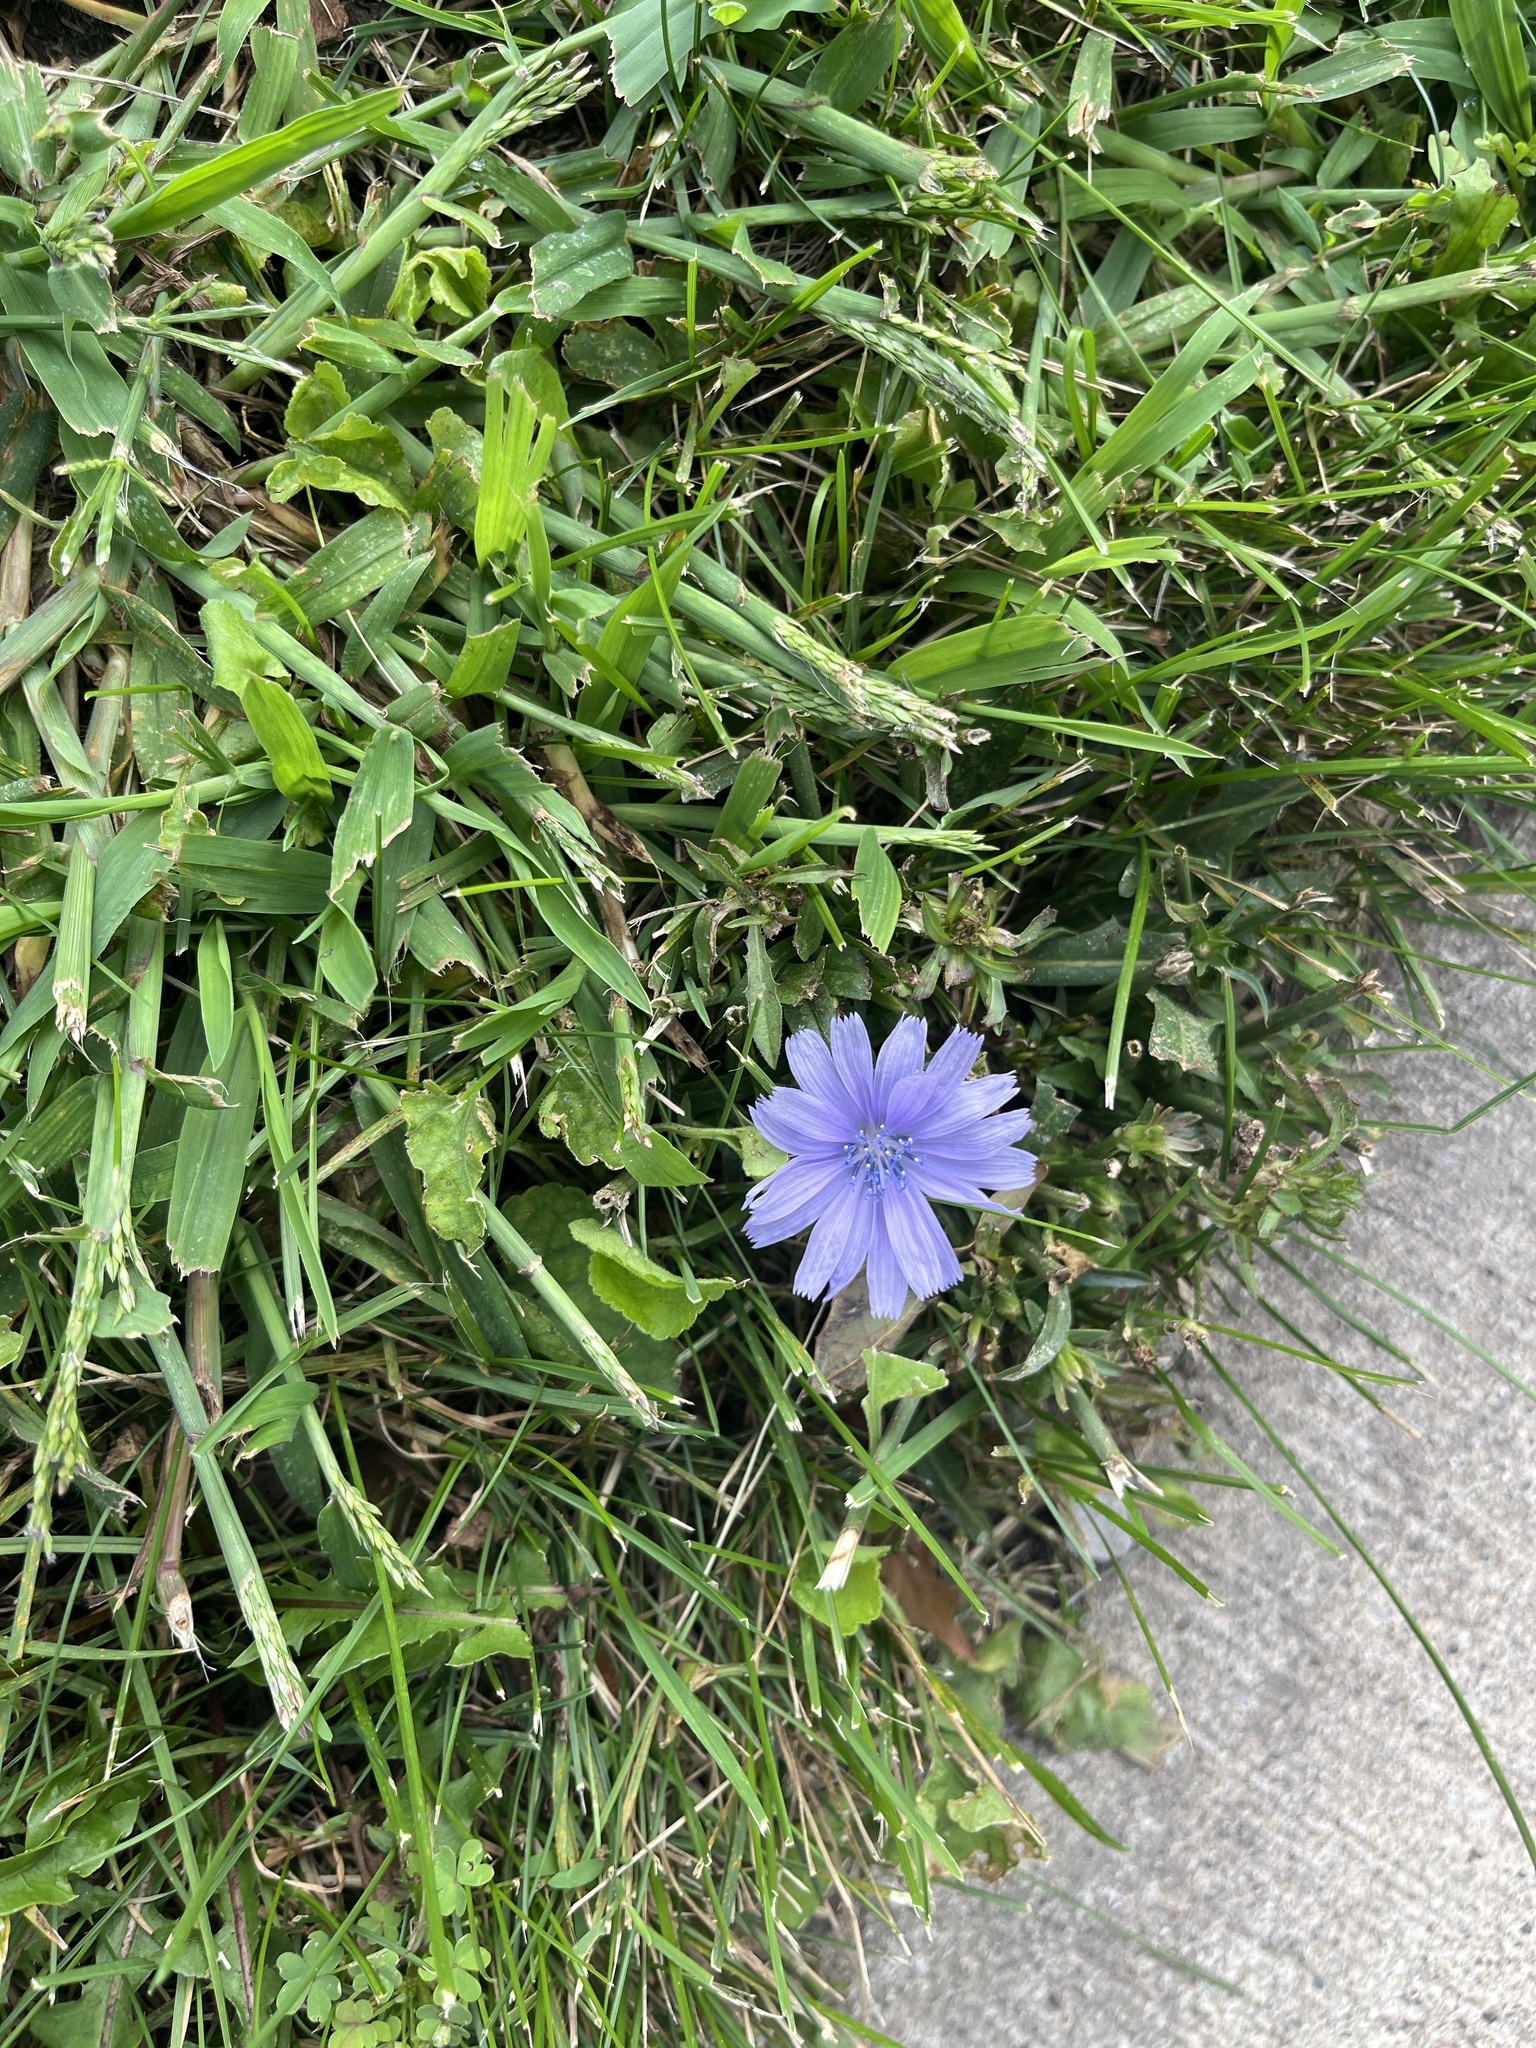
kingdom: Plantae
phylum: Tracheophyta
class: Magnoliopsida
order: Asterales
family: Asteraceae
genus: Cichorium
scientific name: Cichorium intybus
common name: Chicory
